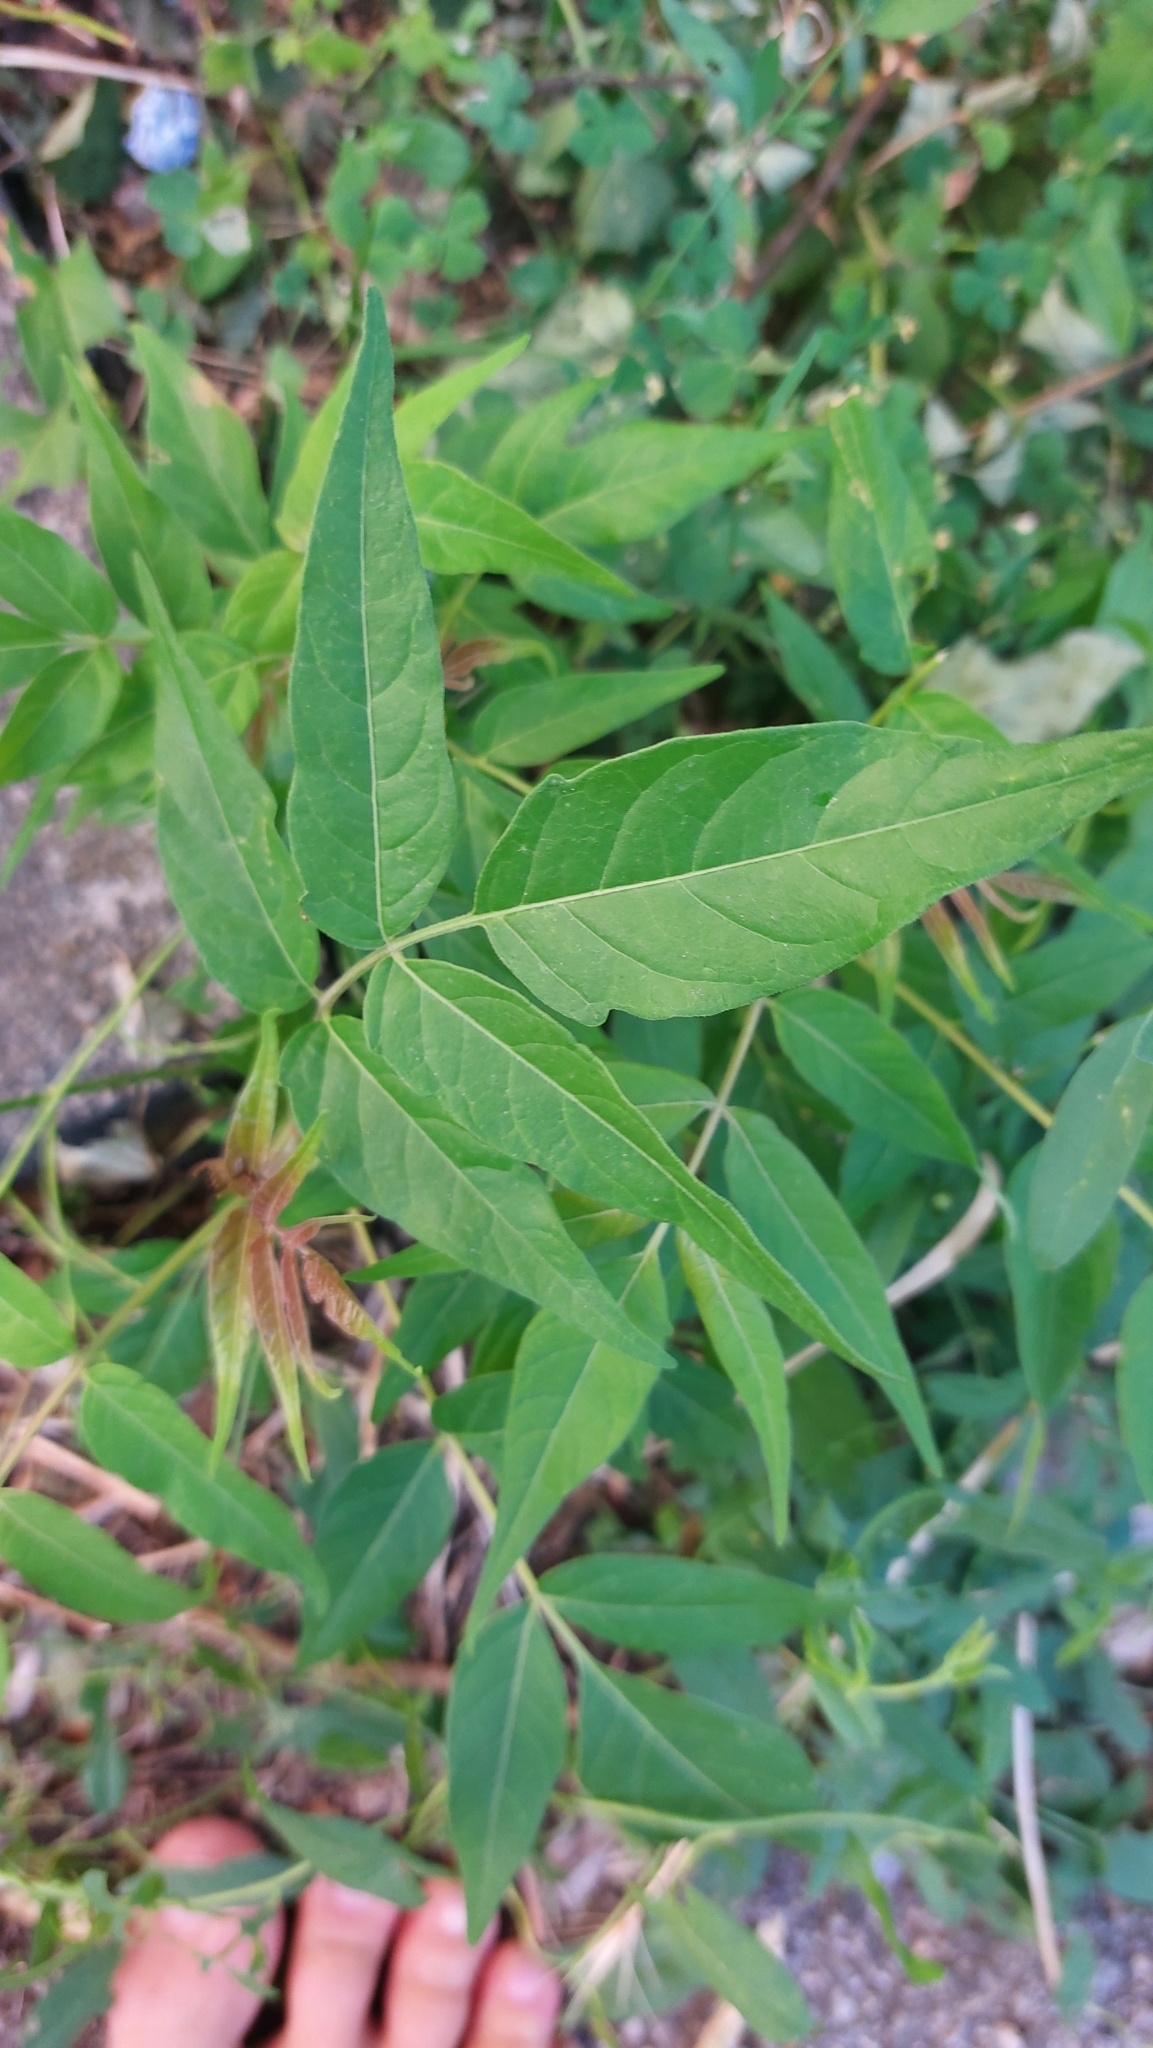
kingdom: Plantae
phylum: Tracheophyta
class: Magnoliopsida
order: Sapindales
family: Simaroubaceae
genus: Ailanthus
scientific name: Ailanthus altissima
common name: Tree-of-heaven
